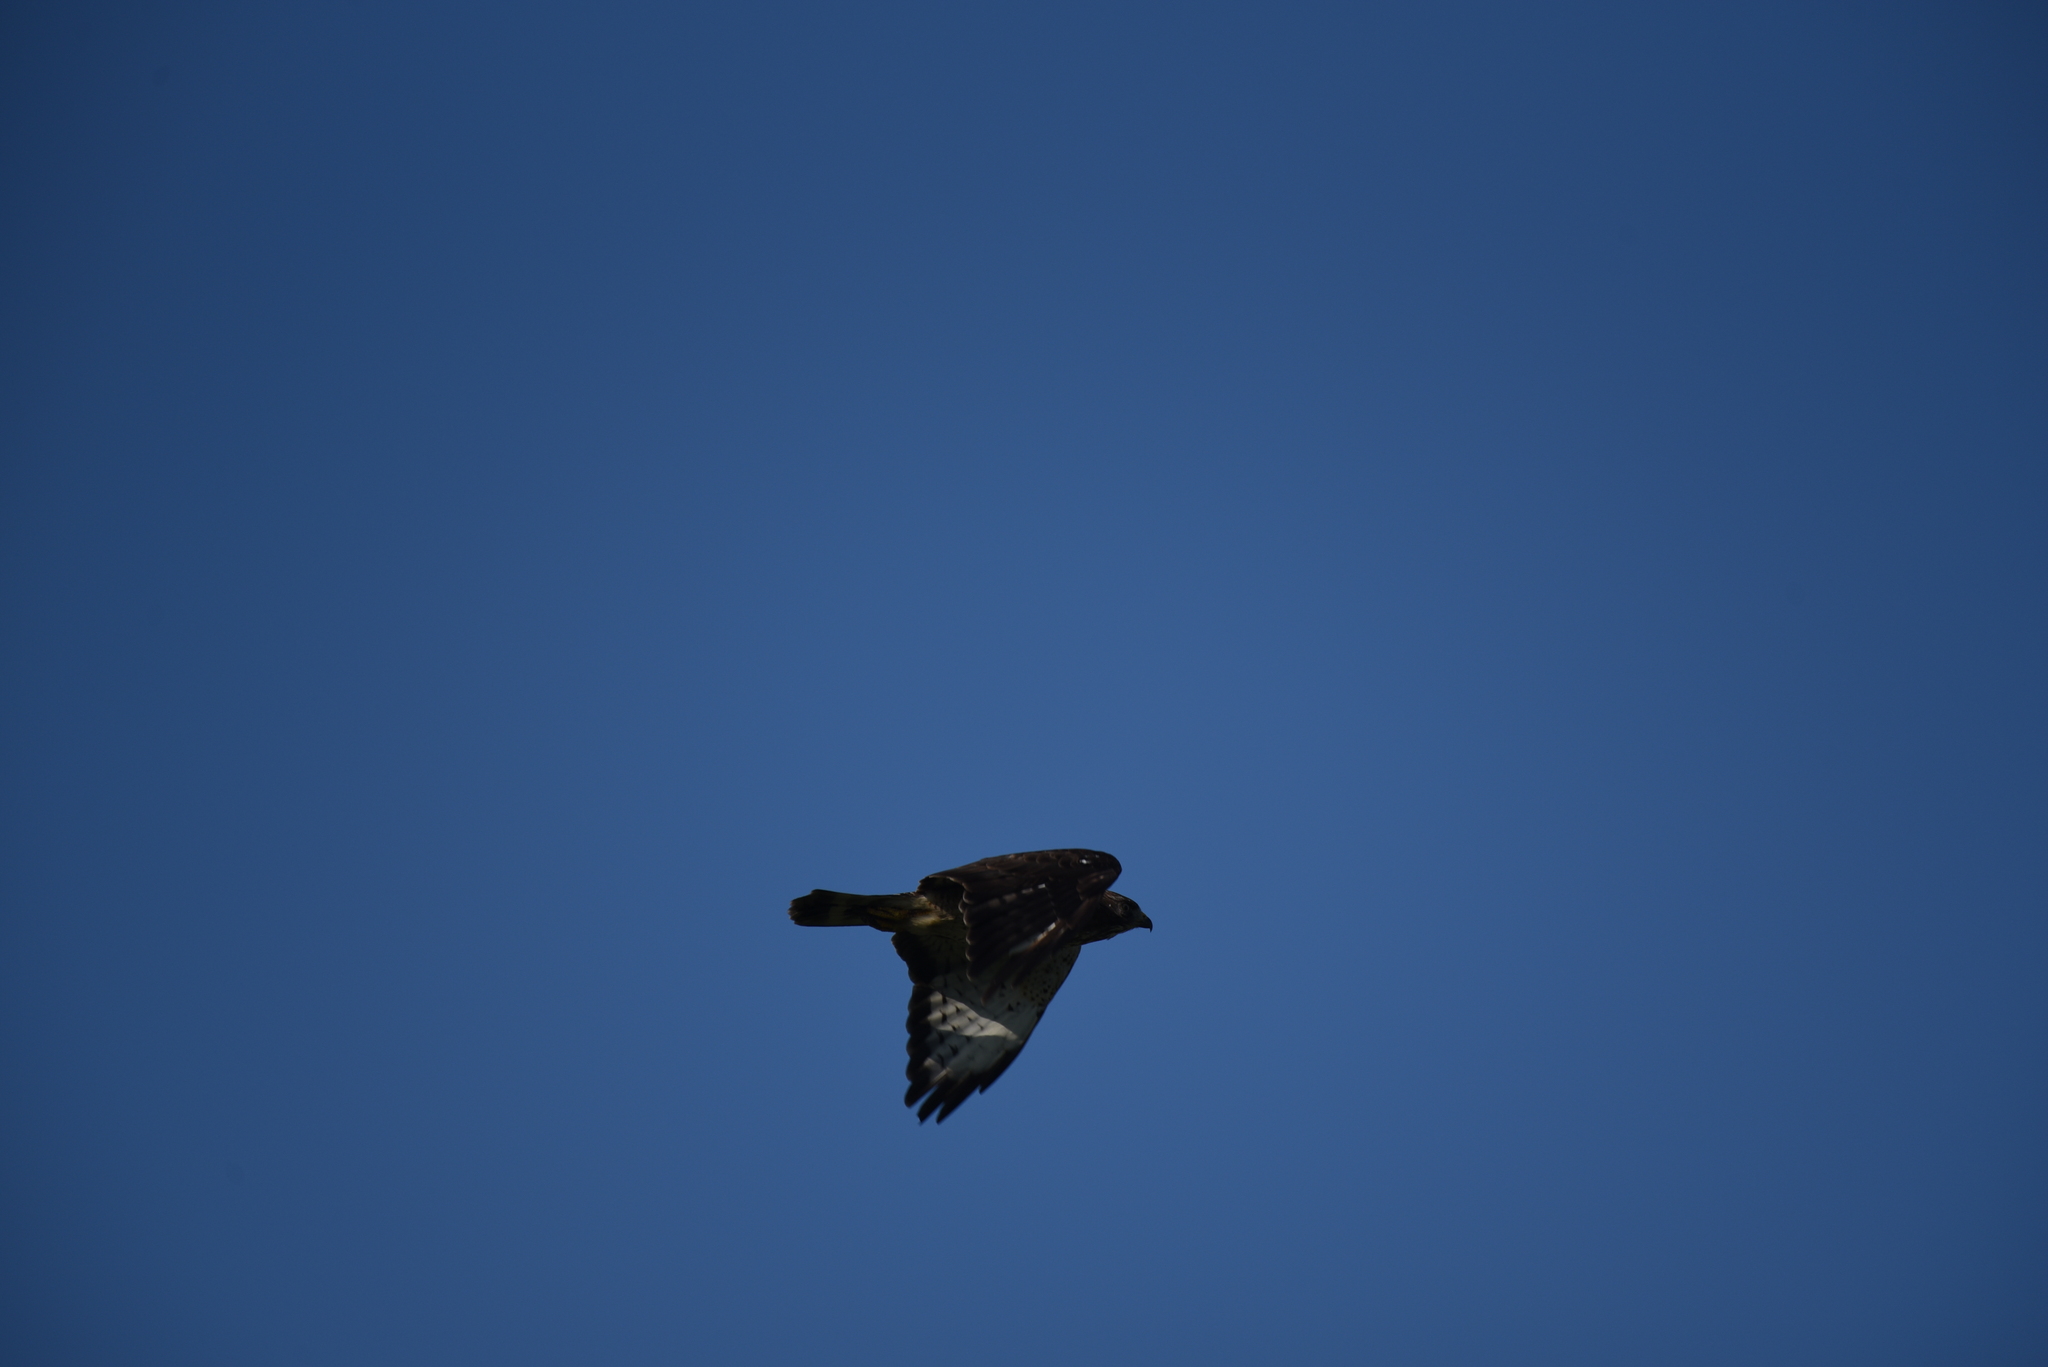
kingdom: Animalia
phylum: Chordata
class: Aves
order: Accipitriformes
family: Accipitridae
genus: Buteo
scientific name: Buteo platypterus
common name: Broad-winged hawk
